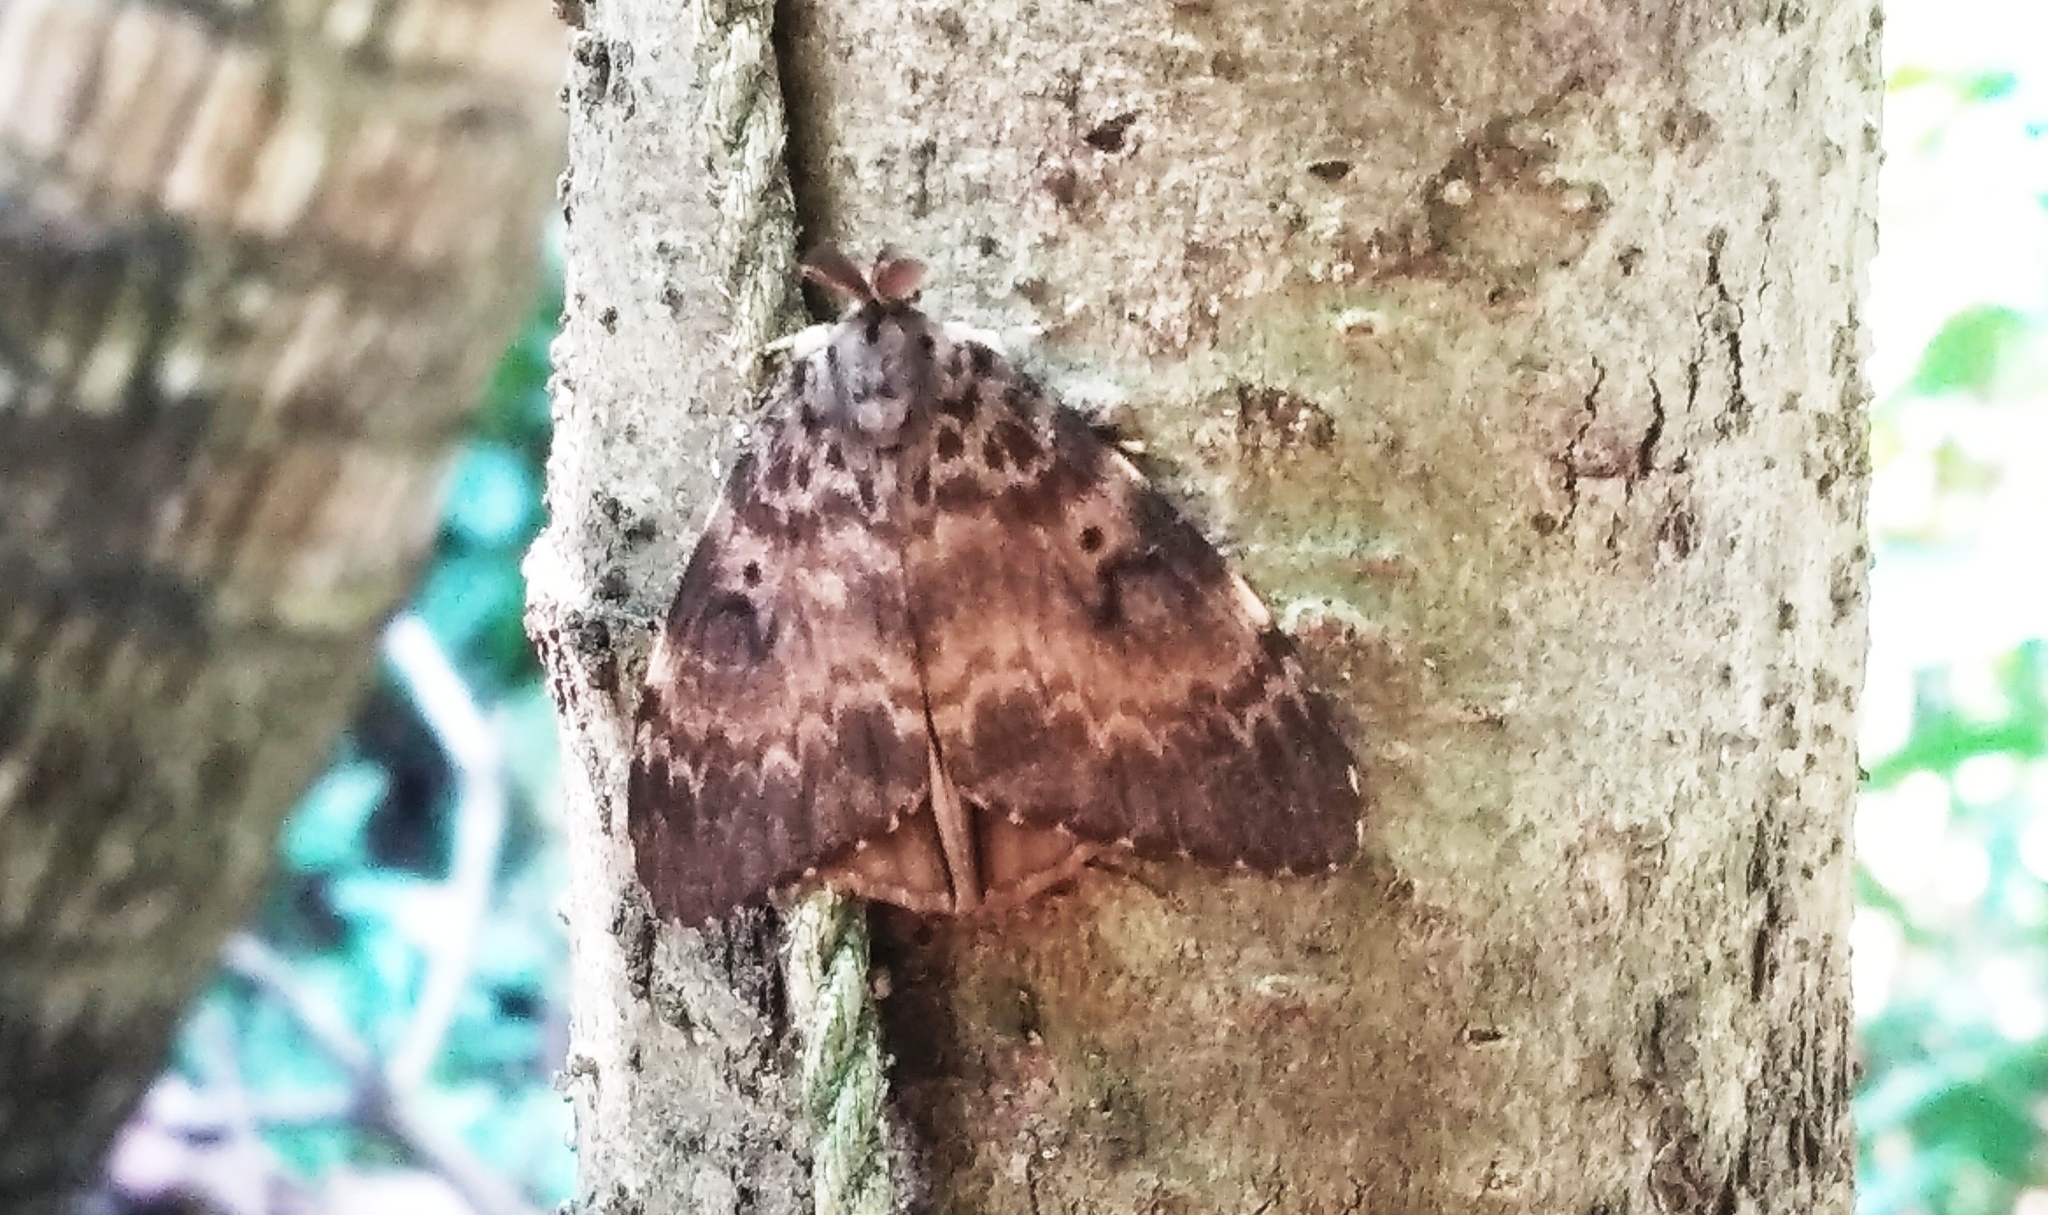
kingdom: Animalia
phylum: Arthropoda
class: Insecta
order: Lepidoptera
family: Erebidae
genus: Lymantria
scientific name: Lymantria ampla
